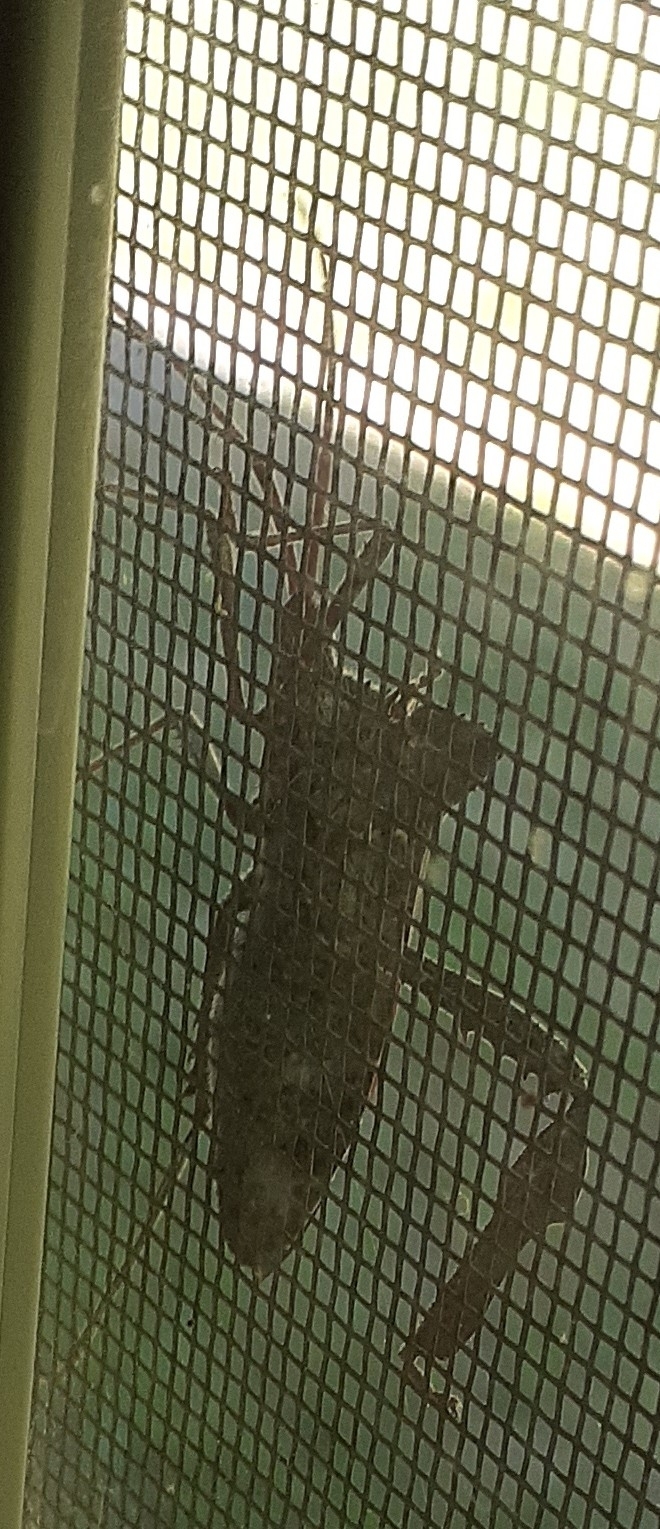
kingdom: Animalia
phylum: Arthropoda
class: Insecta
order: Hemiptera
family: Coreidae
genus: Acanthocephala
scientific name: Acanthocephala declivis
